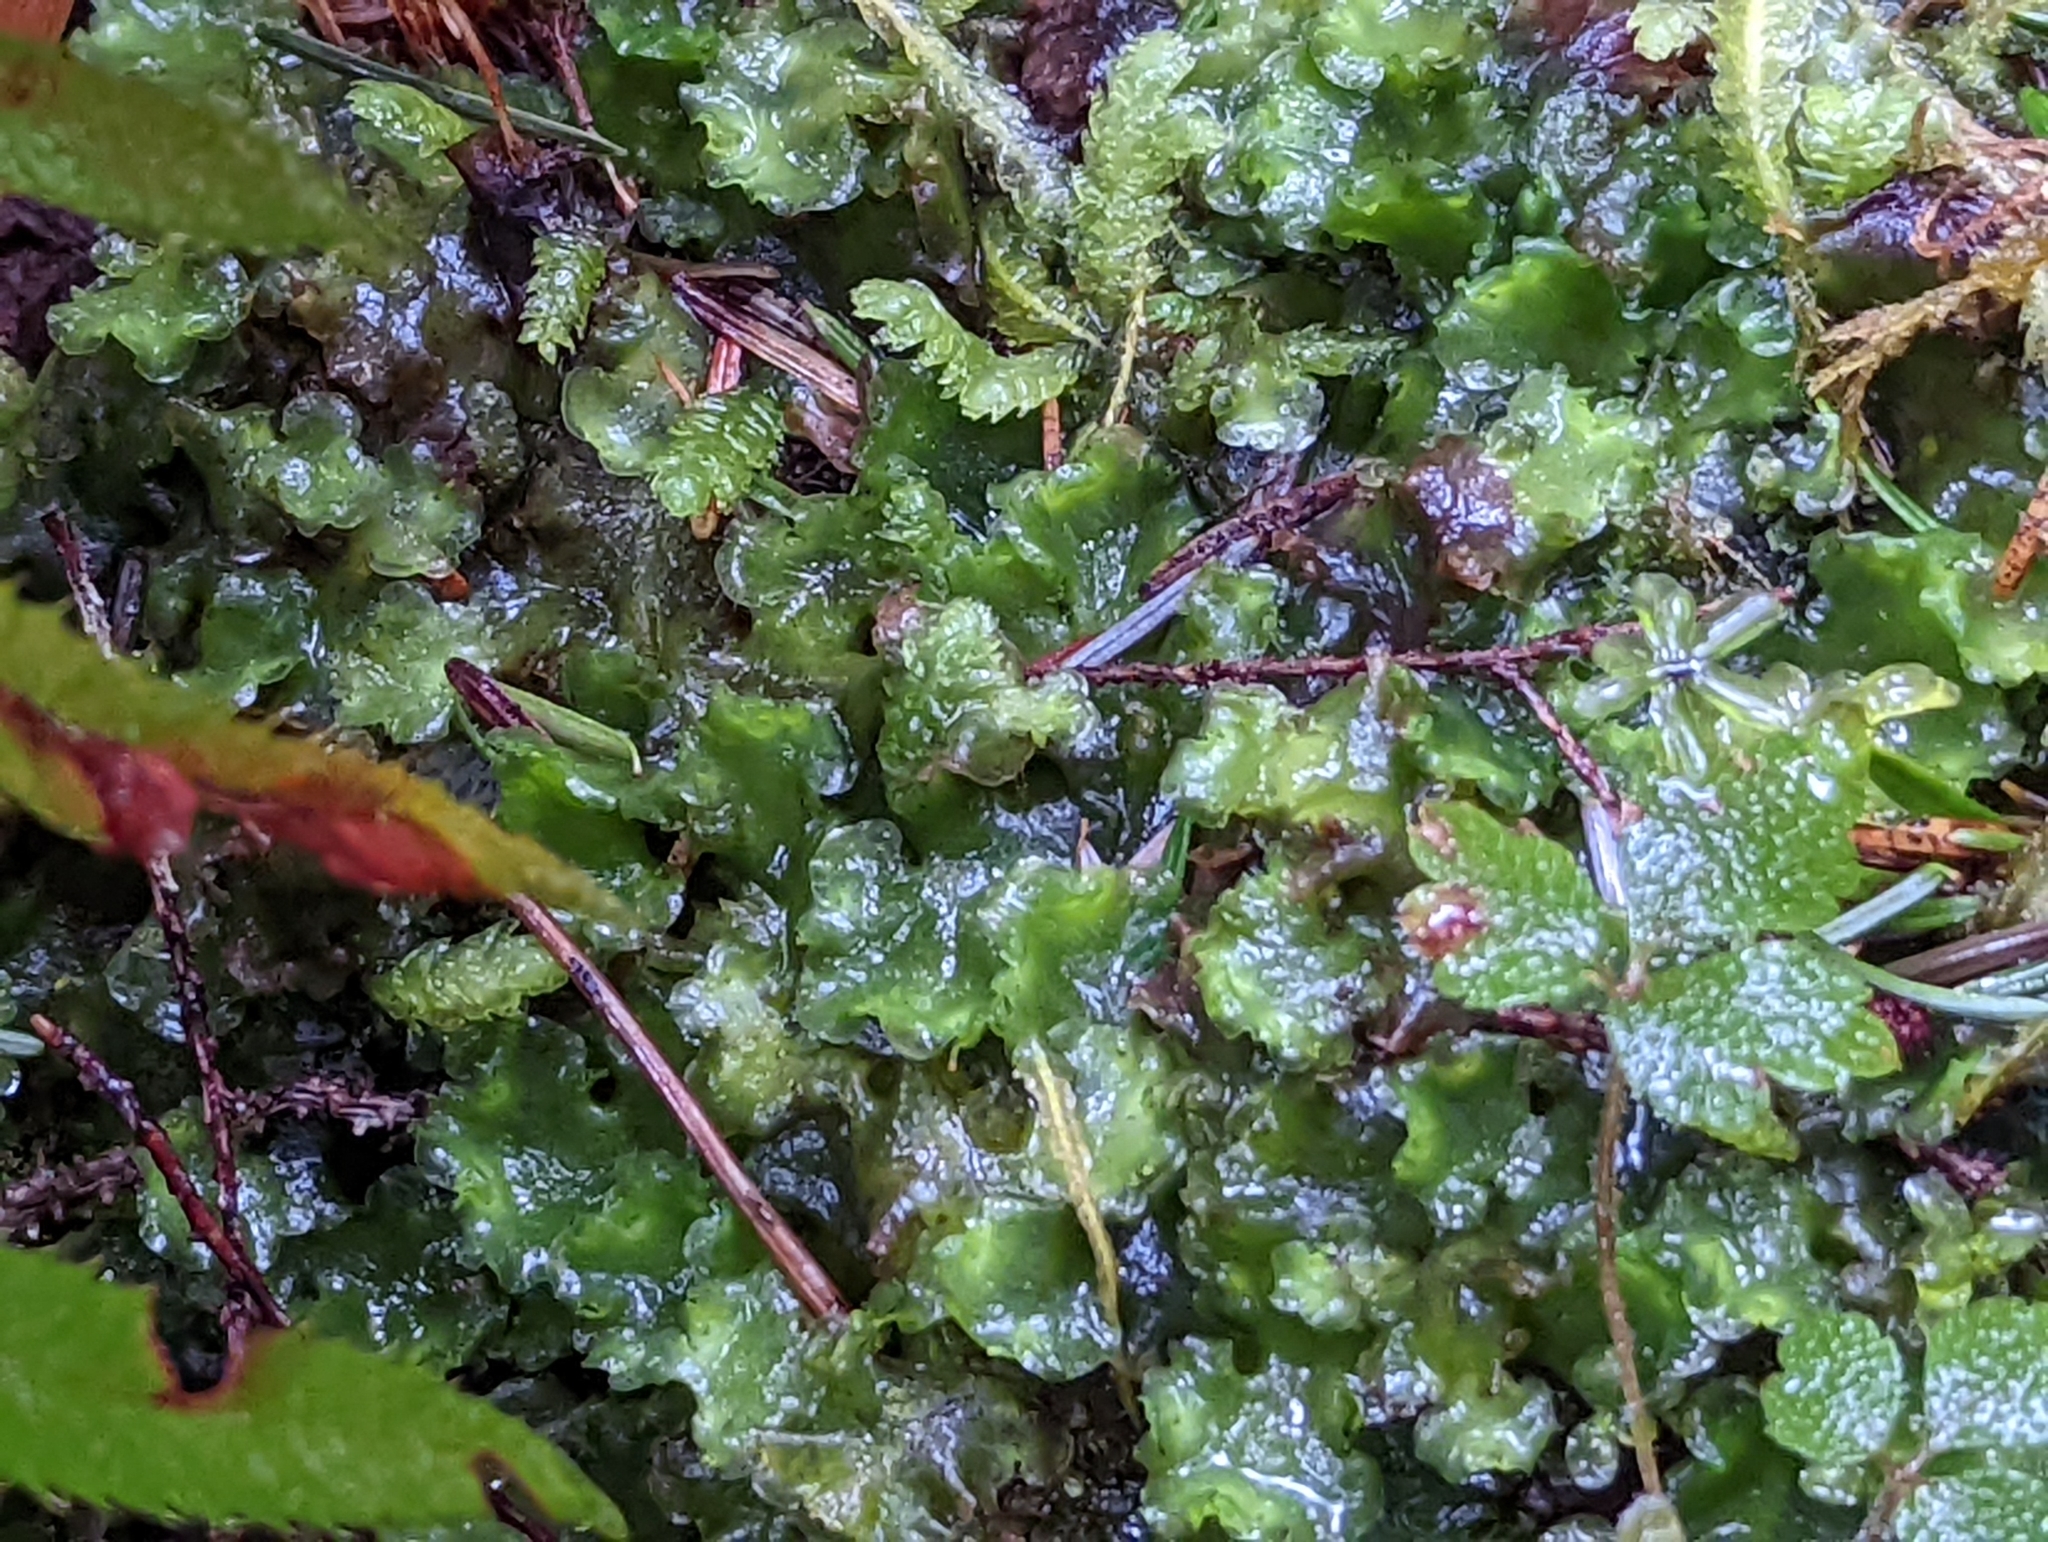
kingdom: Plantae
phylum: Marchantiophyta
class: Jungermanniopsida
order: Pelliales
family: Pelliaceae
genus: Pellia
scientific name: Pellia neesiana
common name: Nees  pellia
